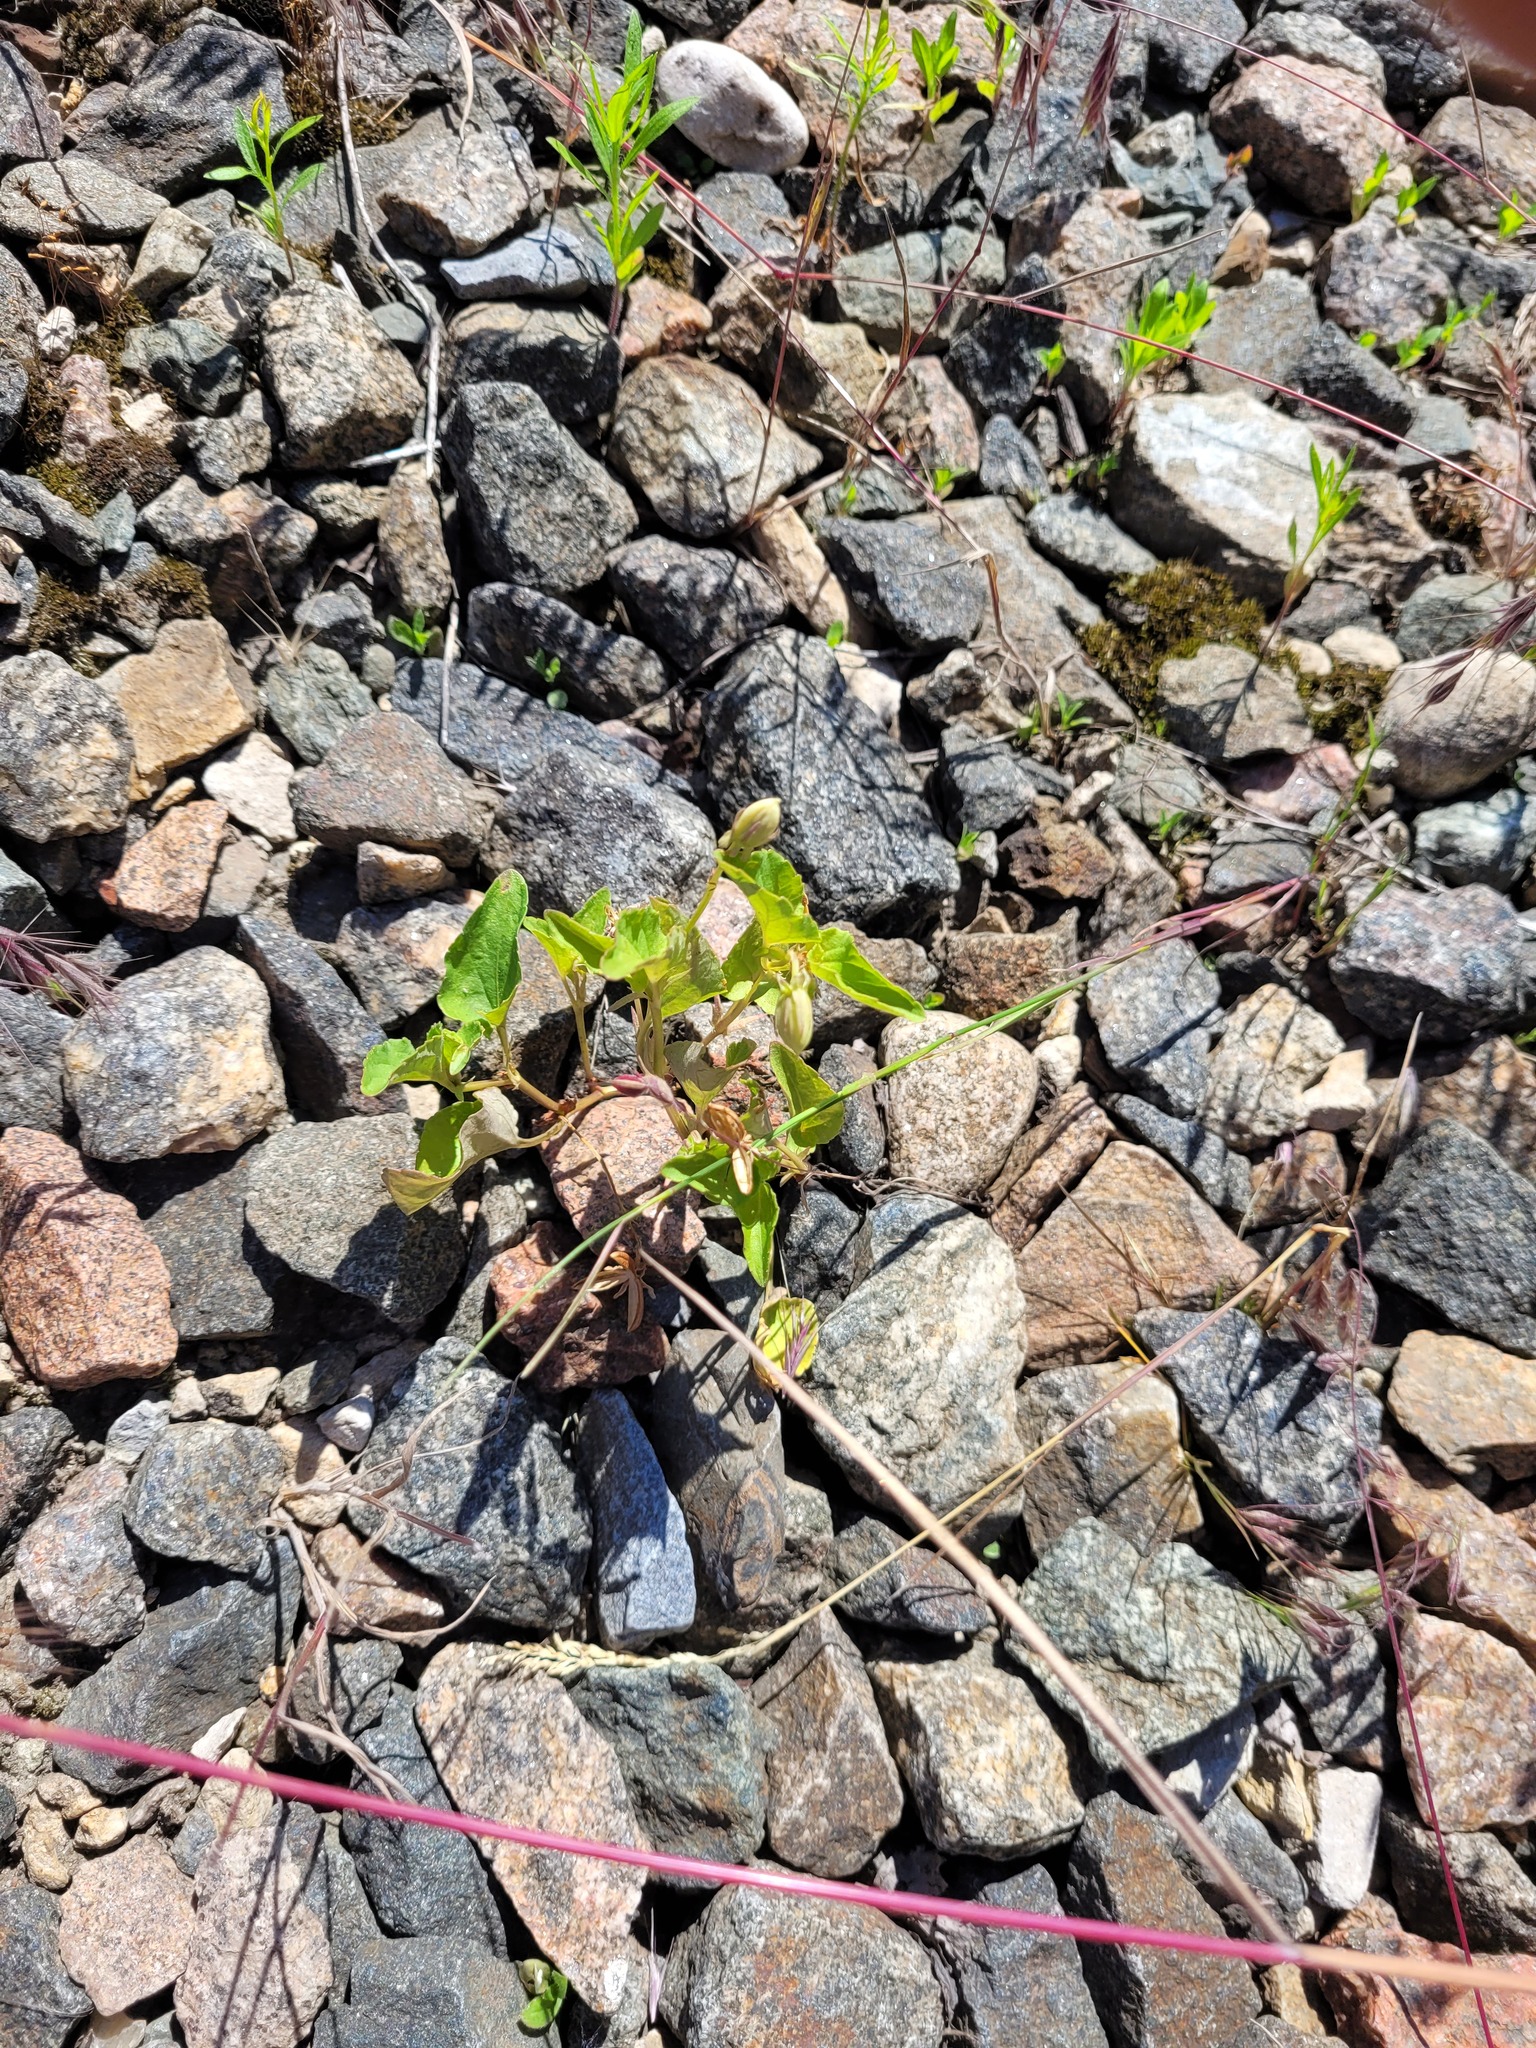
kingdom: Plantae
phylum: Tracheophyta
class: Magnoliopsida
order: Malpighiales
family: Violaceae
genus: Viola
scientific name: Viola
